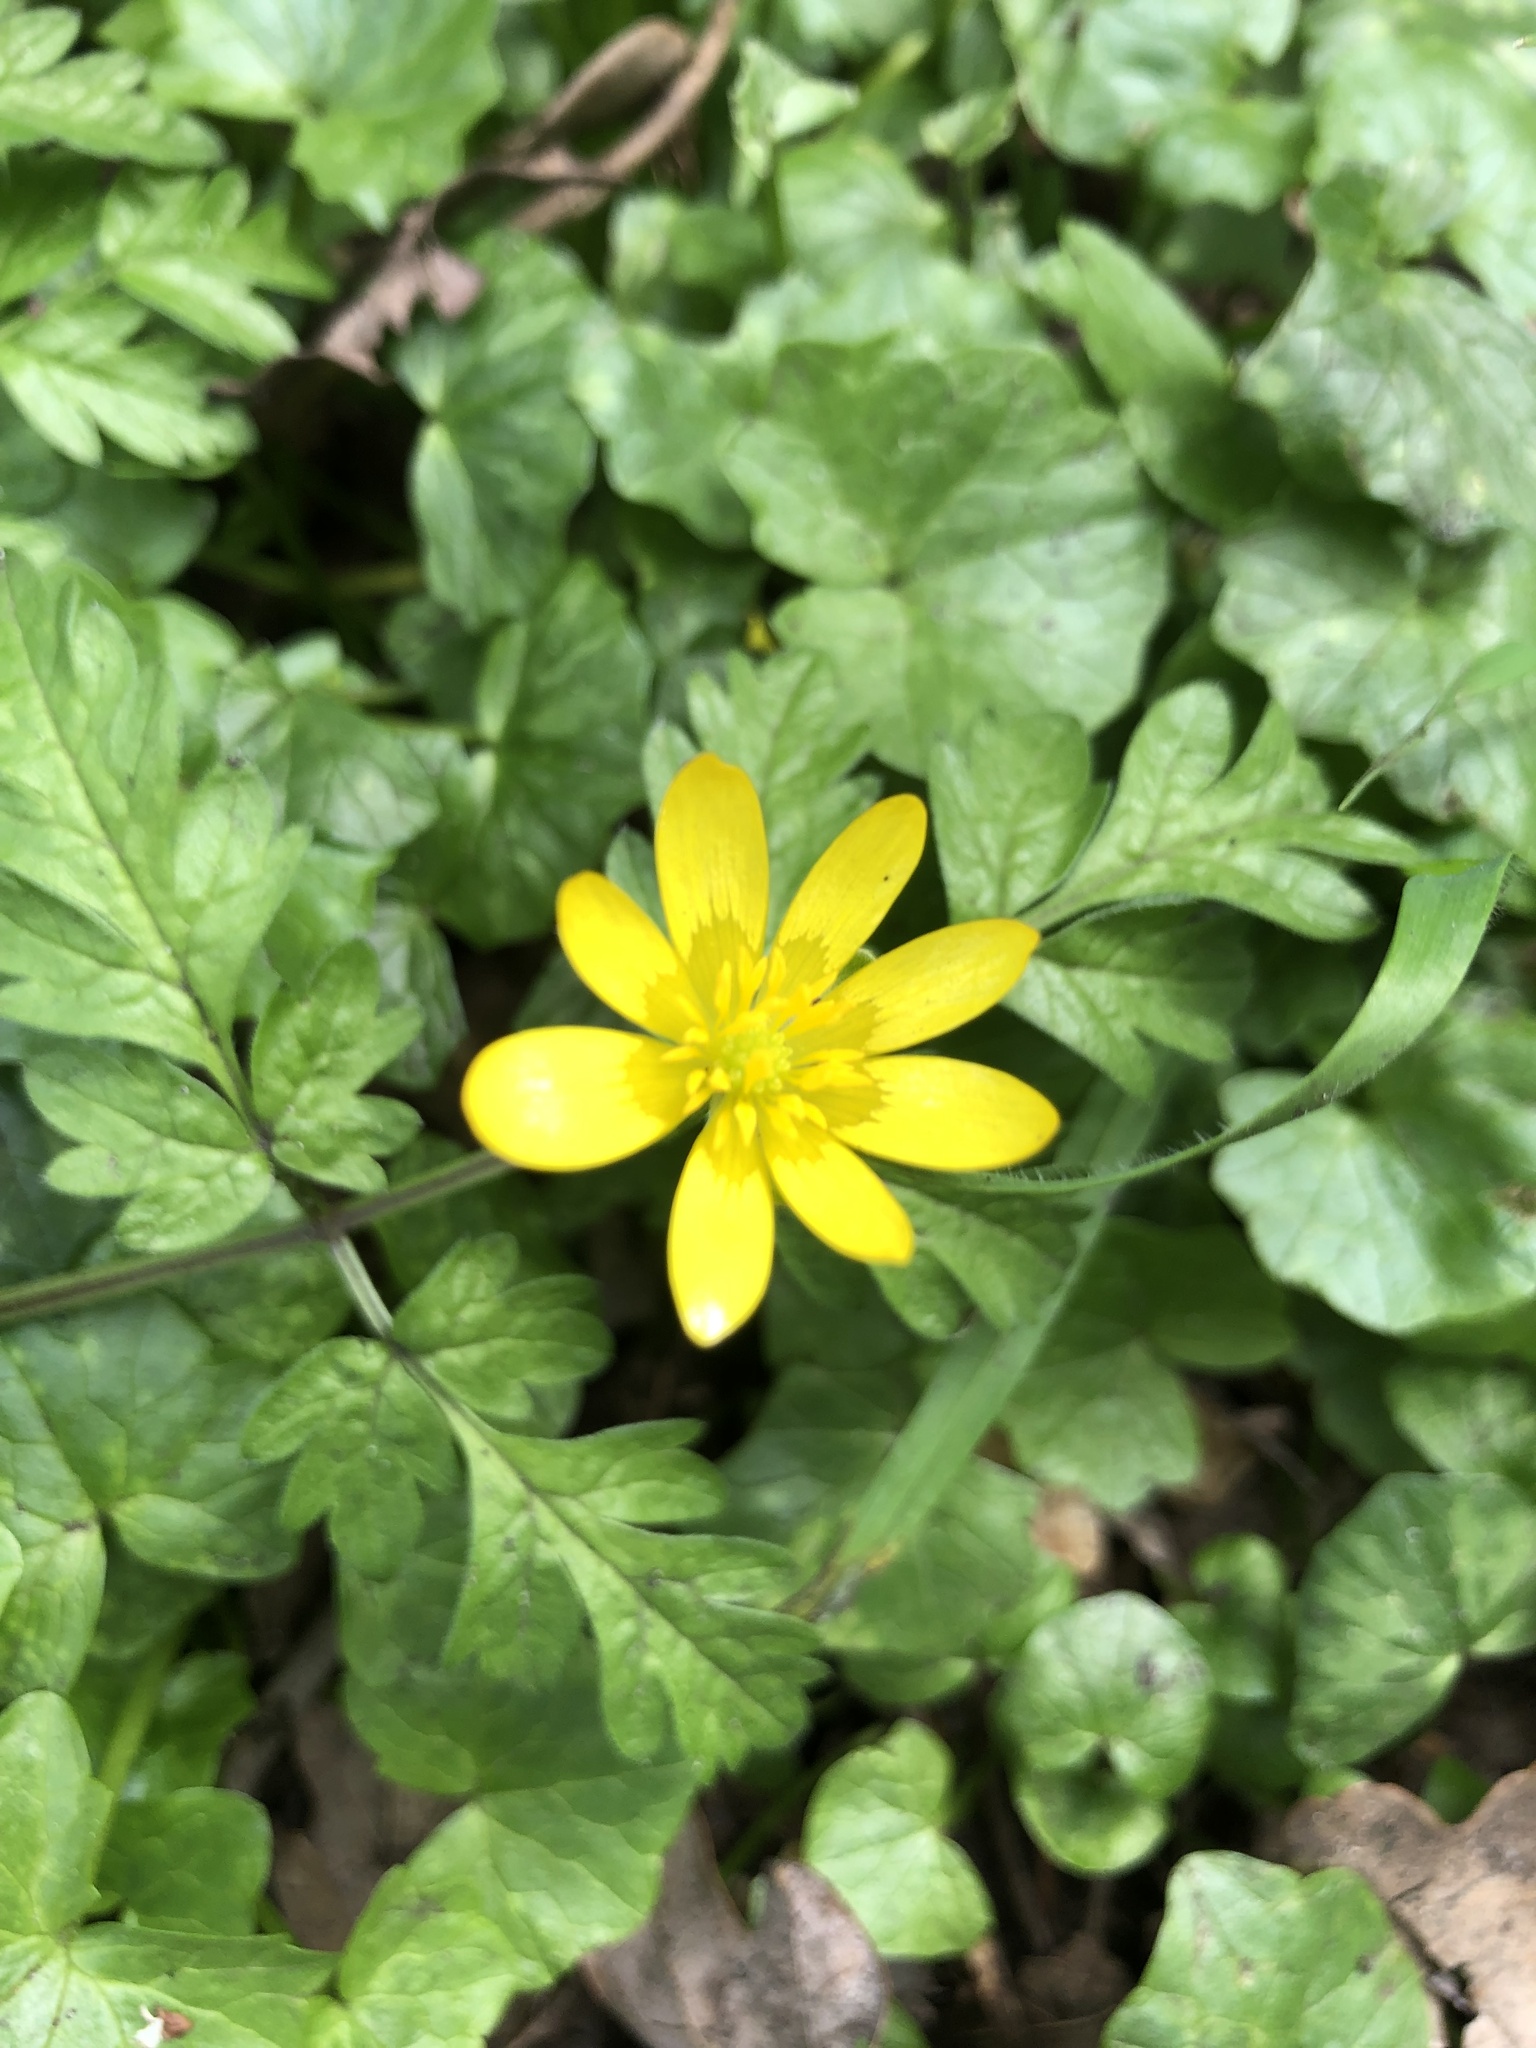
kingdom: Plantae
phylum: Tracheophyta
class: Magnoliopsida
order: Ranunculales
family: Ranunculaceae
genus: Ficaria
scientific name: Ficaria verna
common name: Lesser celandine
